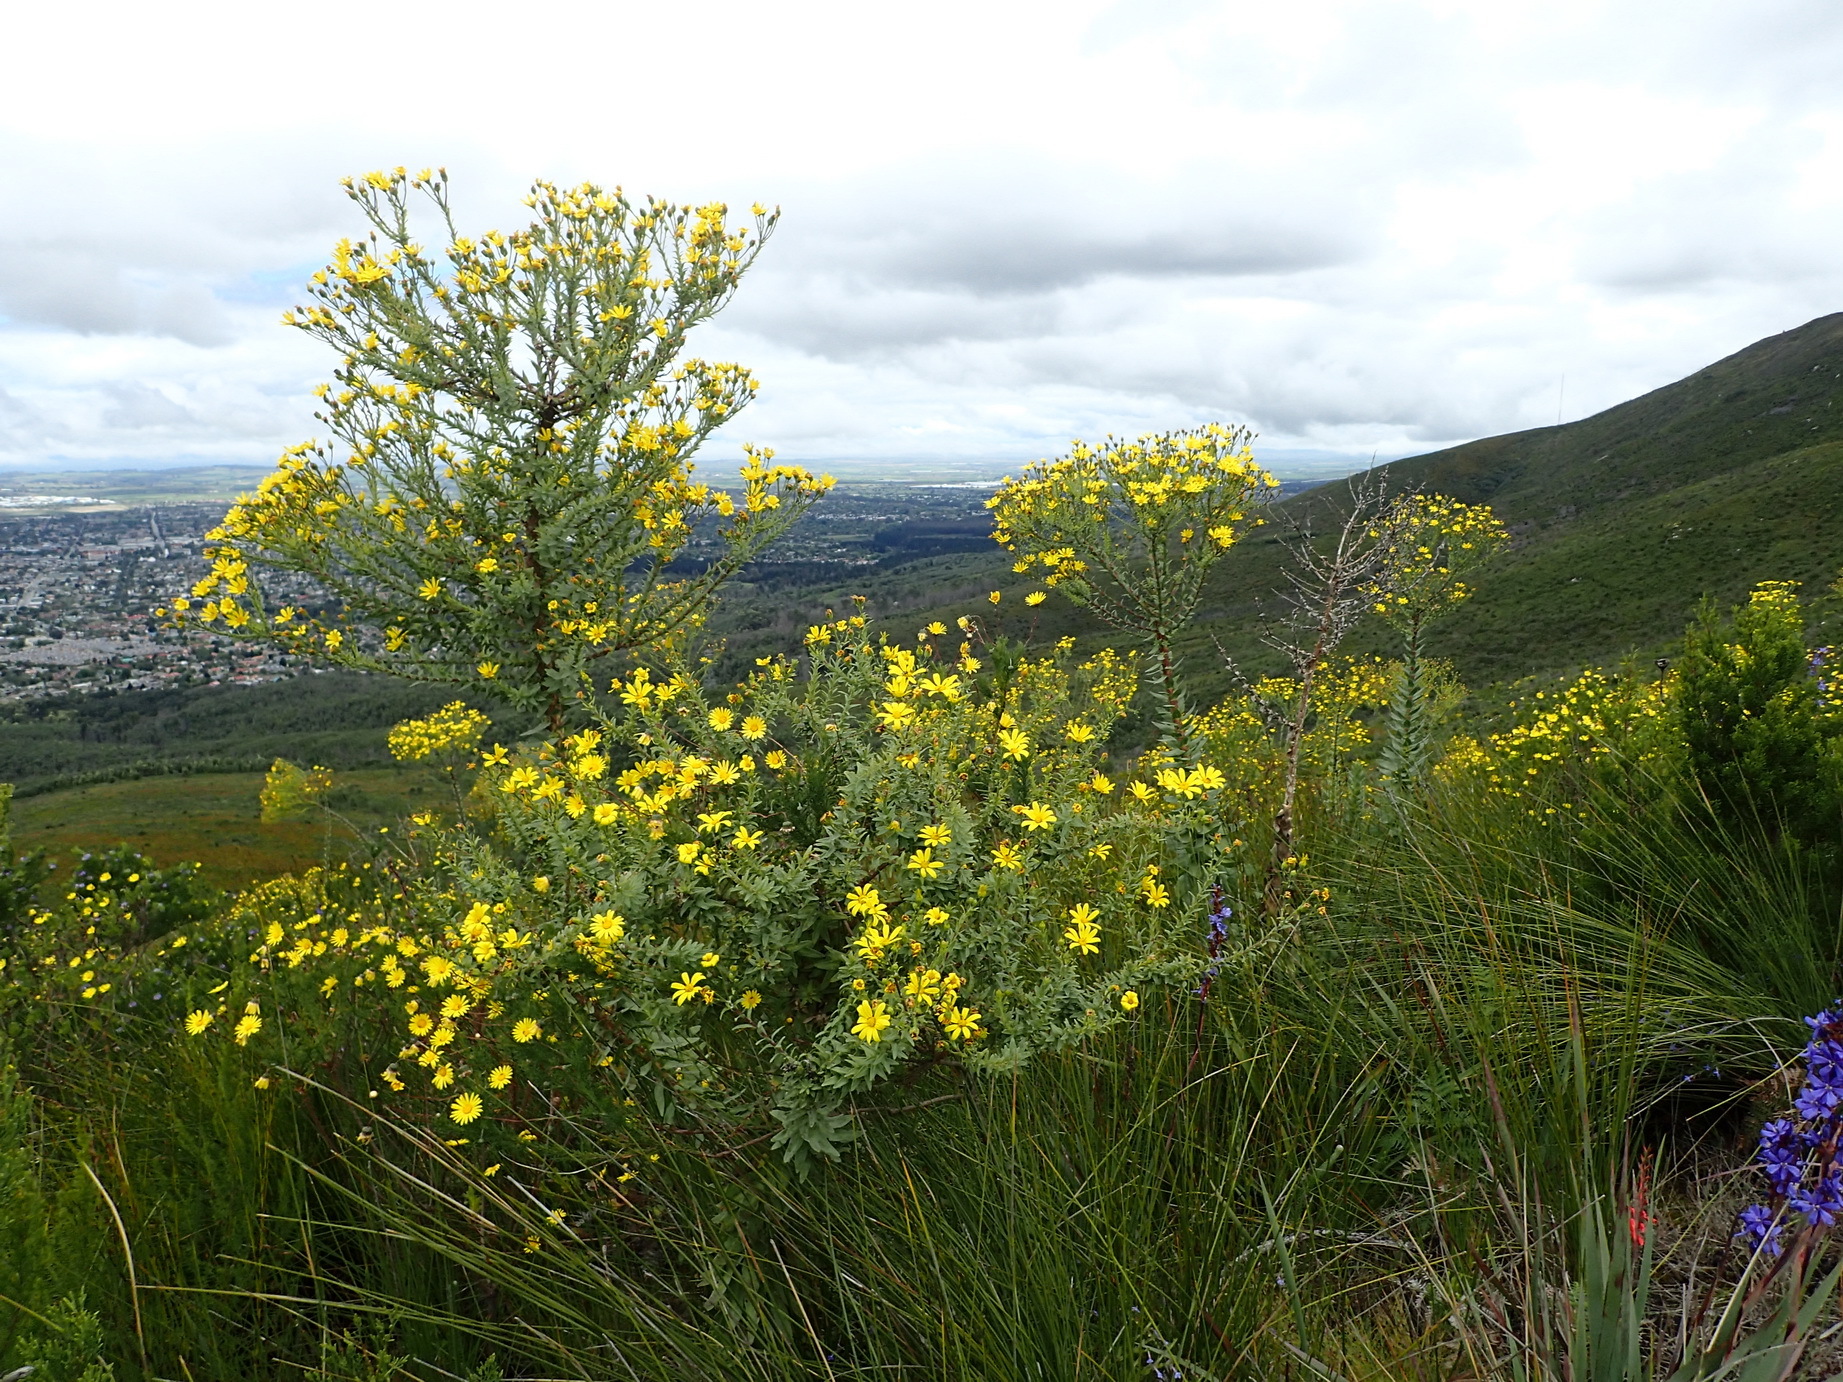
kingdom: Plantae
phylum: Tracheophyta
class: Magnoliopsida
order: Asterales
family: Asteraceae
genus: Osteospermum
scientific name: Osteospermum corymbosum
